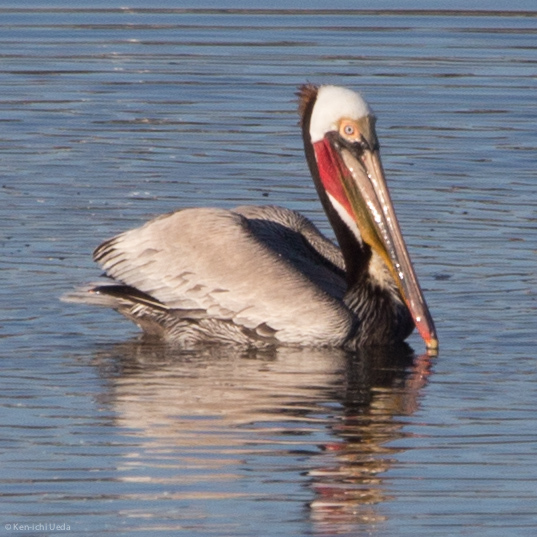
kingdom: Animalia
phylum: Chordata
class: Aves
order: Pelecaniformes
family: Pelecanidae
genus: Pelecanus
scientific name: Pelecanus occidentalis
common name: Brown pelican
